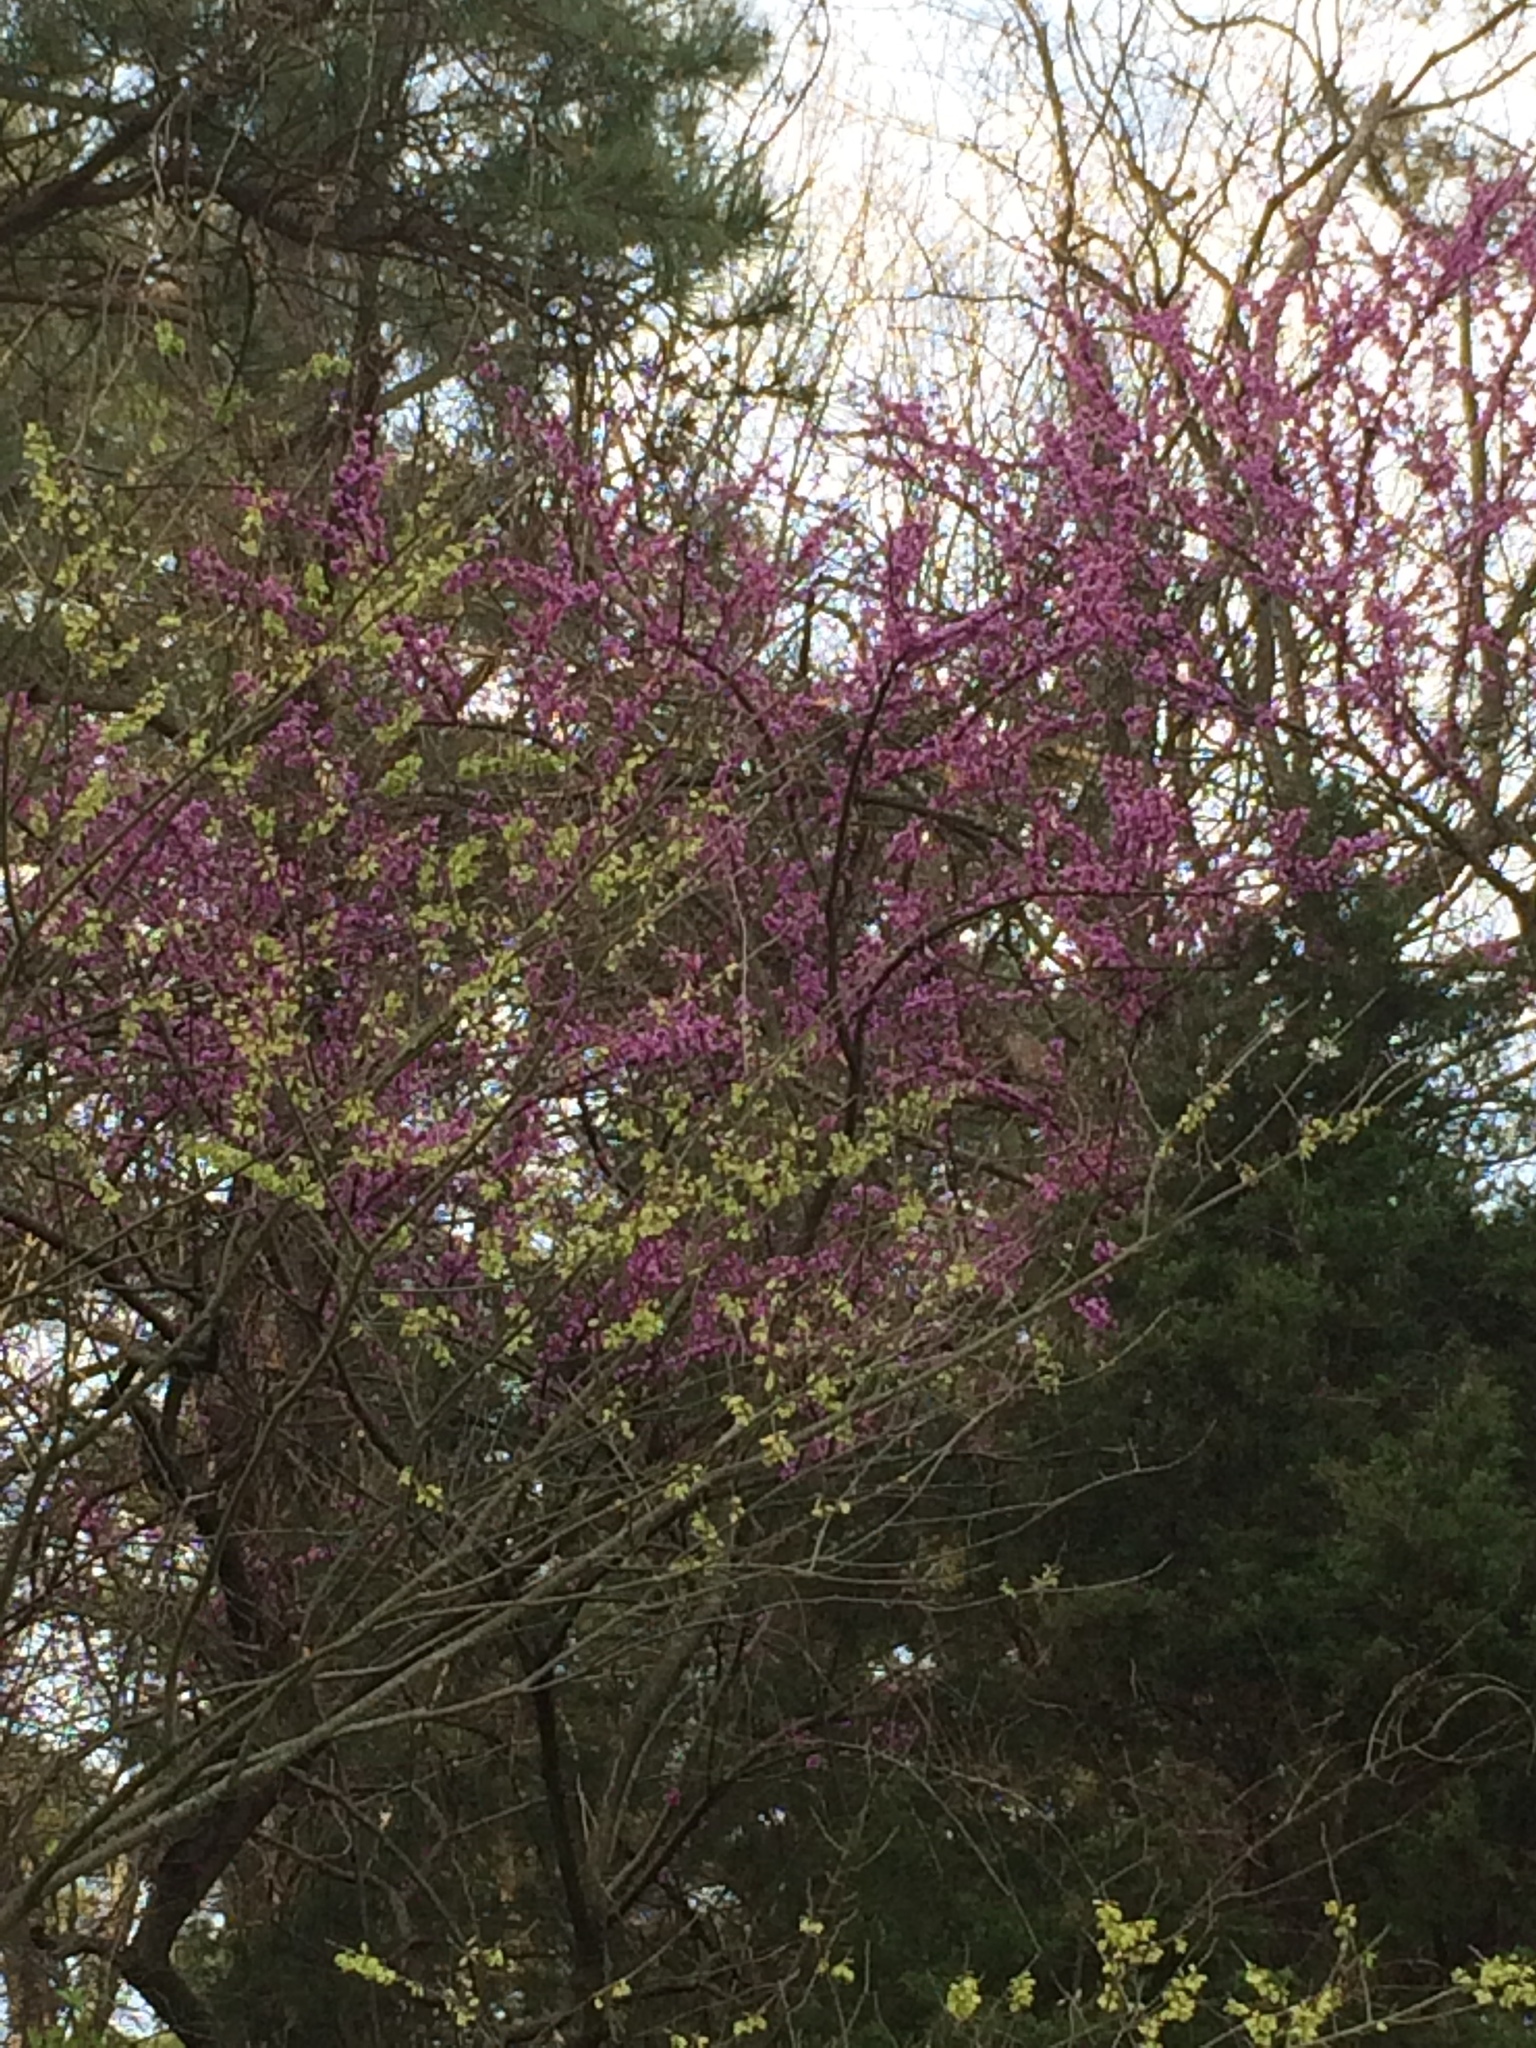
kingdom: Plantae
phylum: Tracheophyta
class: Magnoliopsida
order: Fabales
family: Fabaceae
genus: Cercis
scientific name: Cercis canadensis
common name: Eastern redbud
